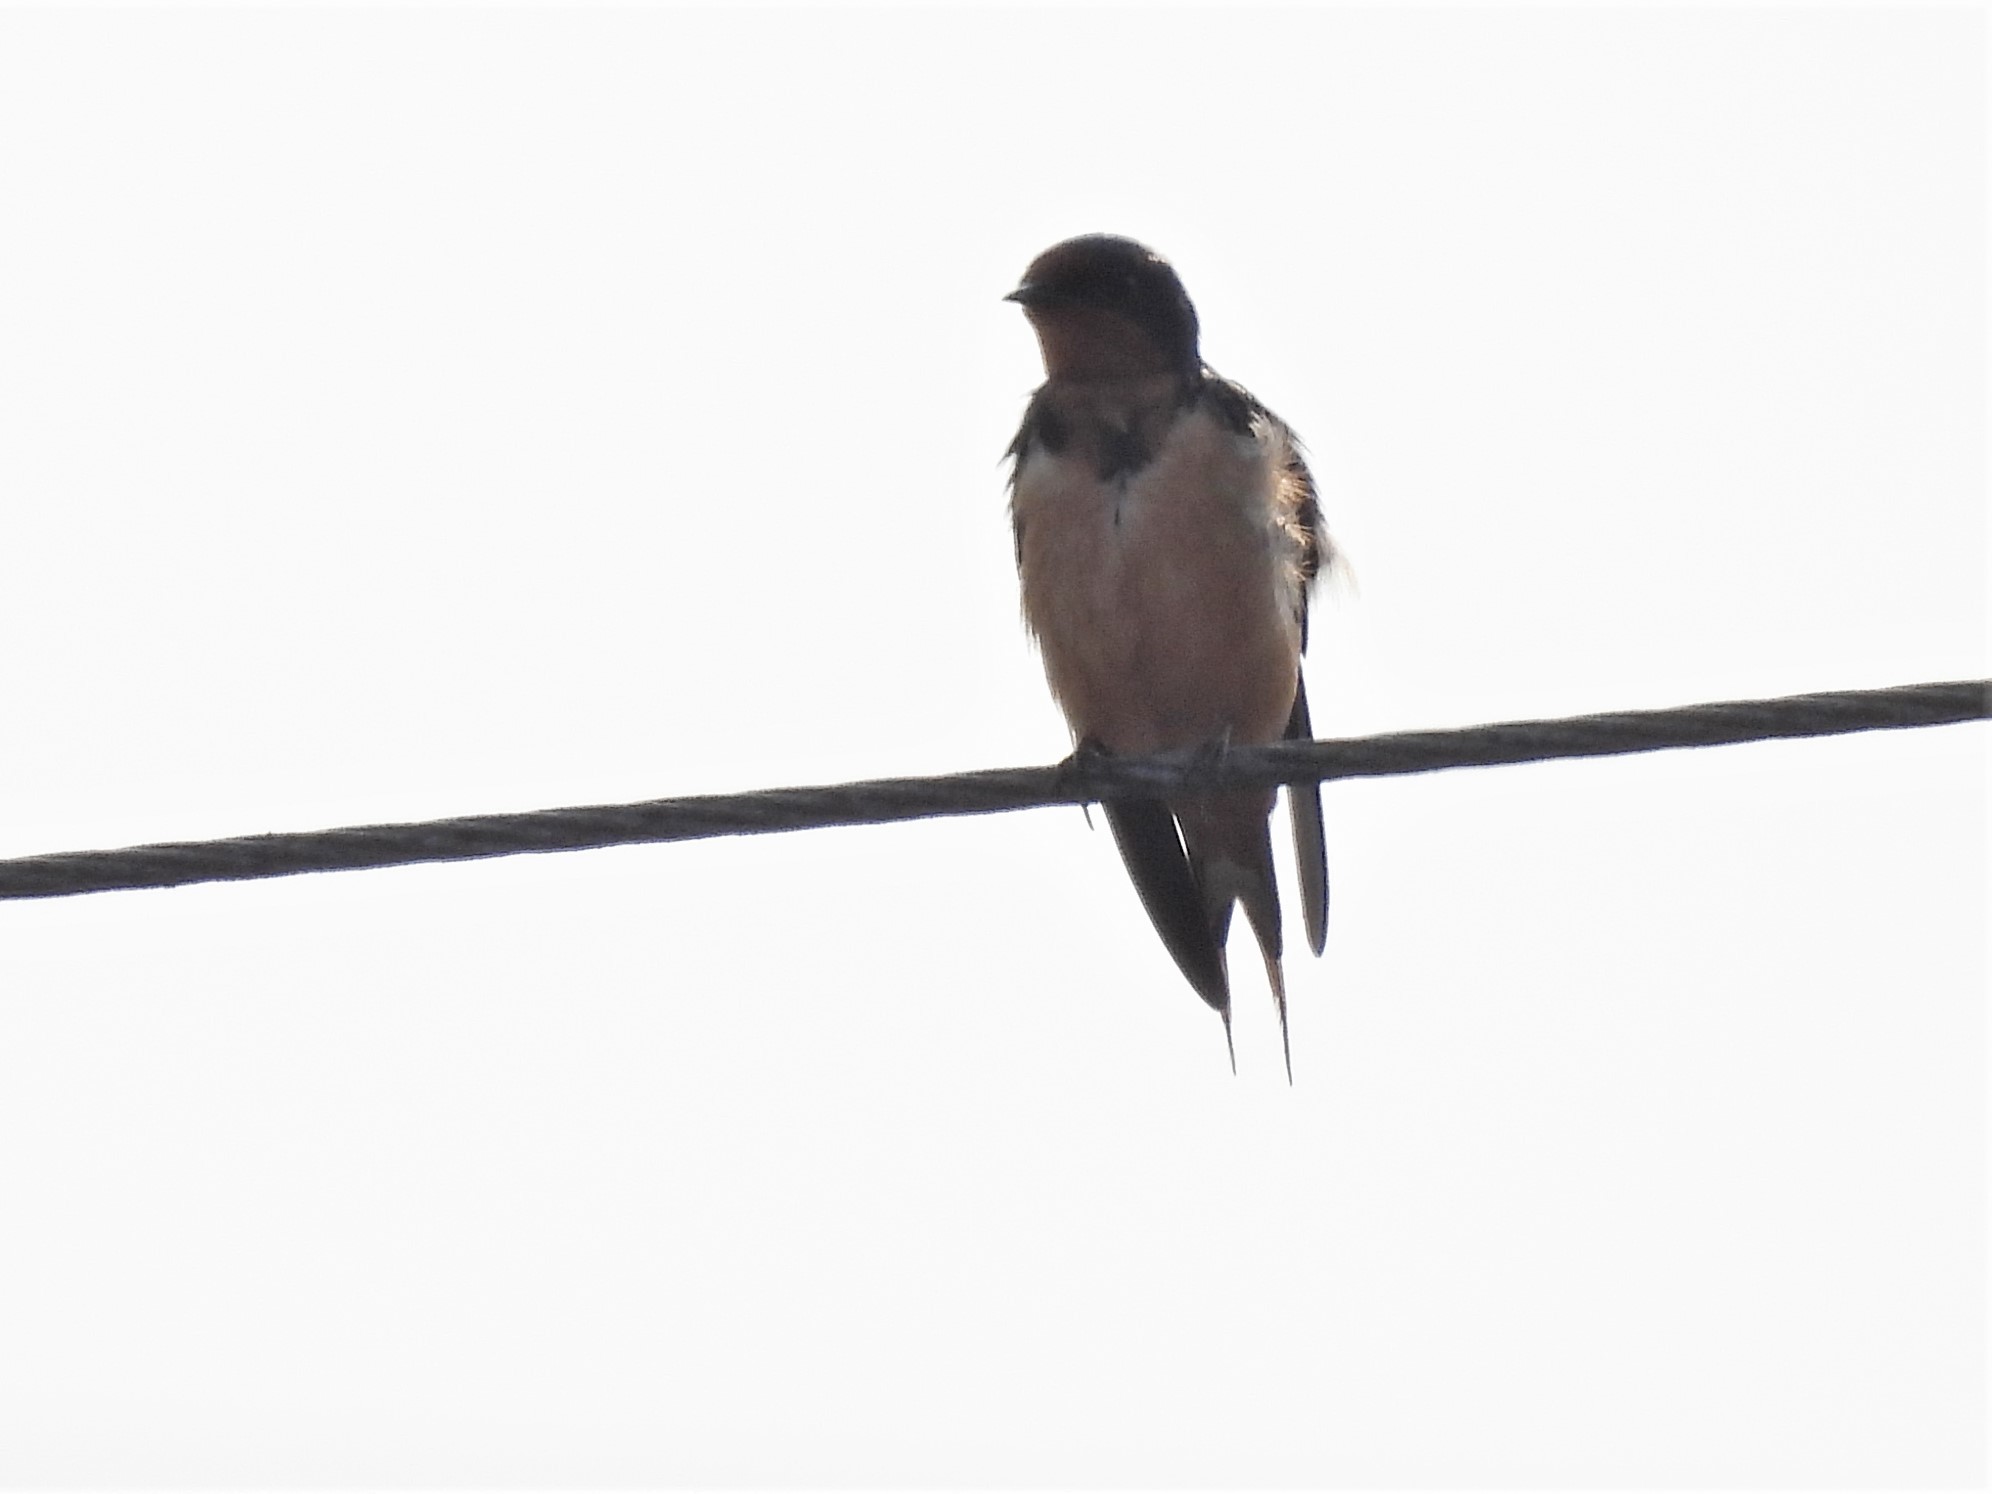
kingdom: Animalia
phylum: Chordata
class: Aves
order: Passeriformes
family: Hirundinidae
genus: Hirundo
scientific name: Hirundo rustica
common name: Barn swallow
